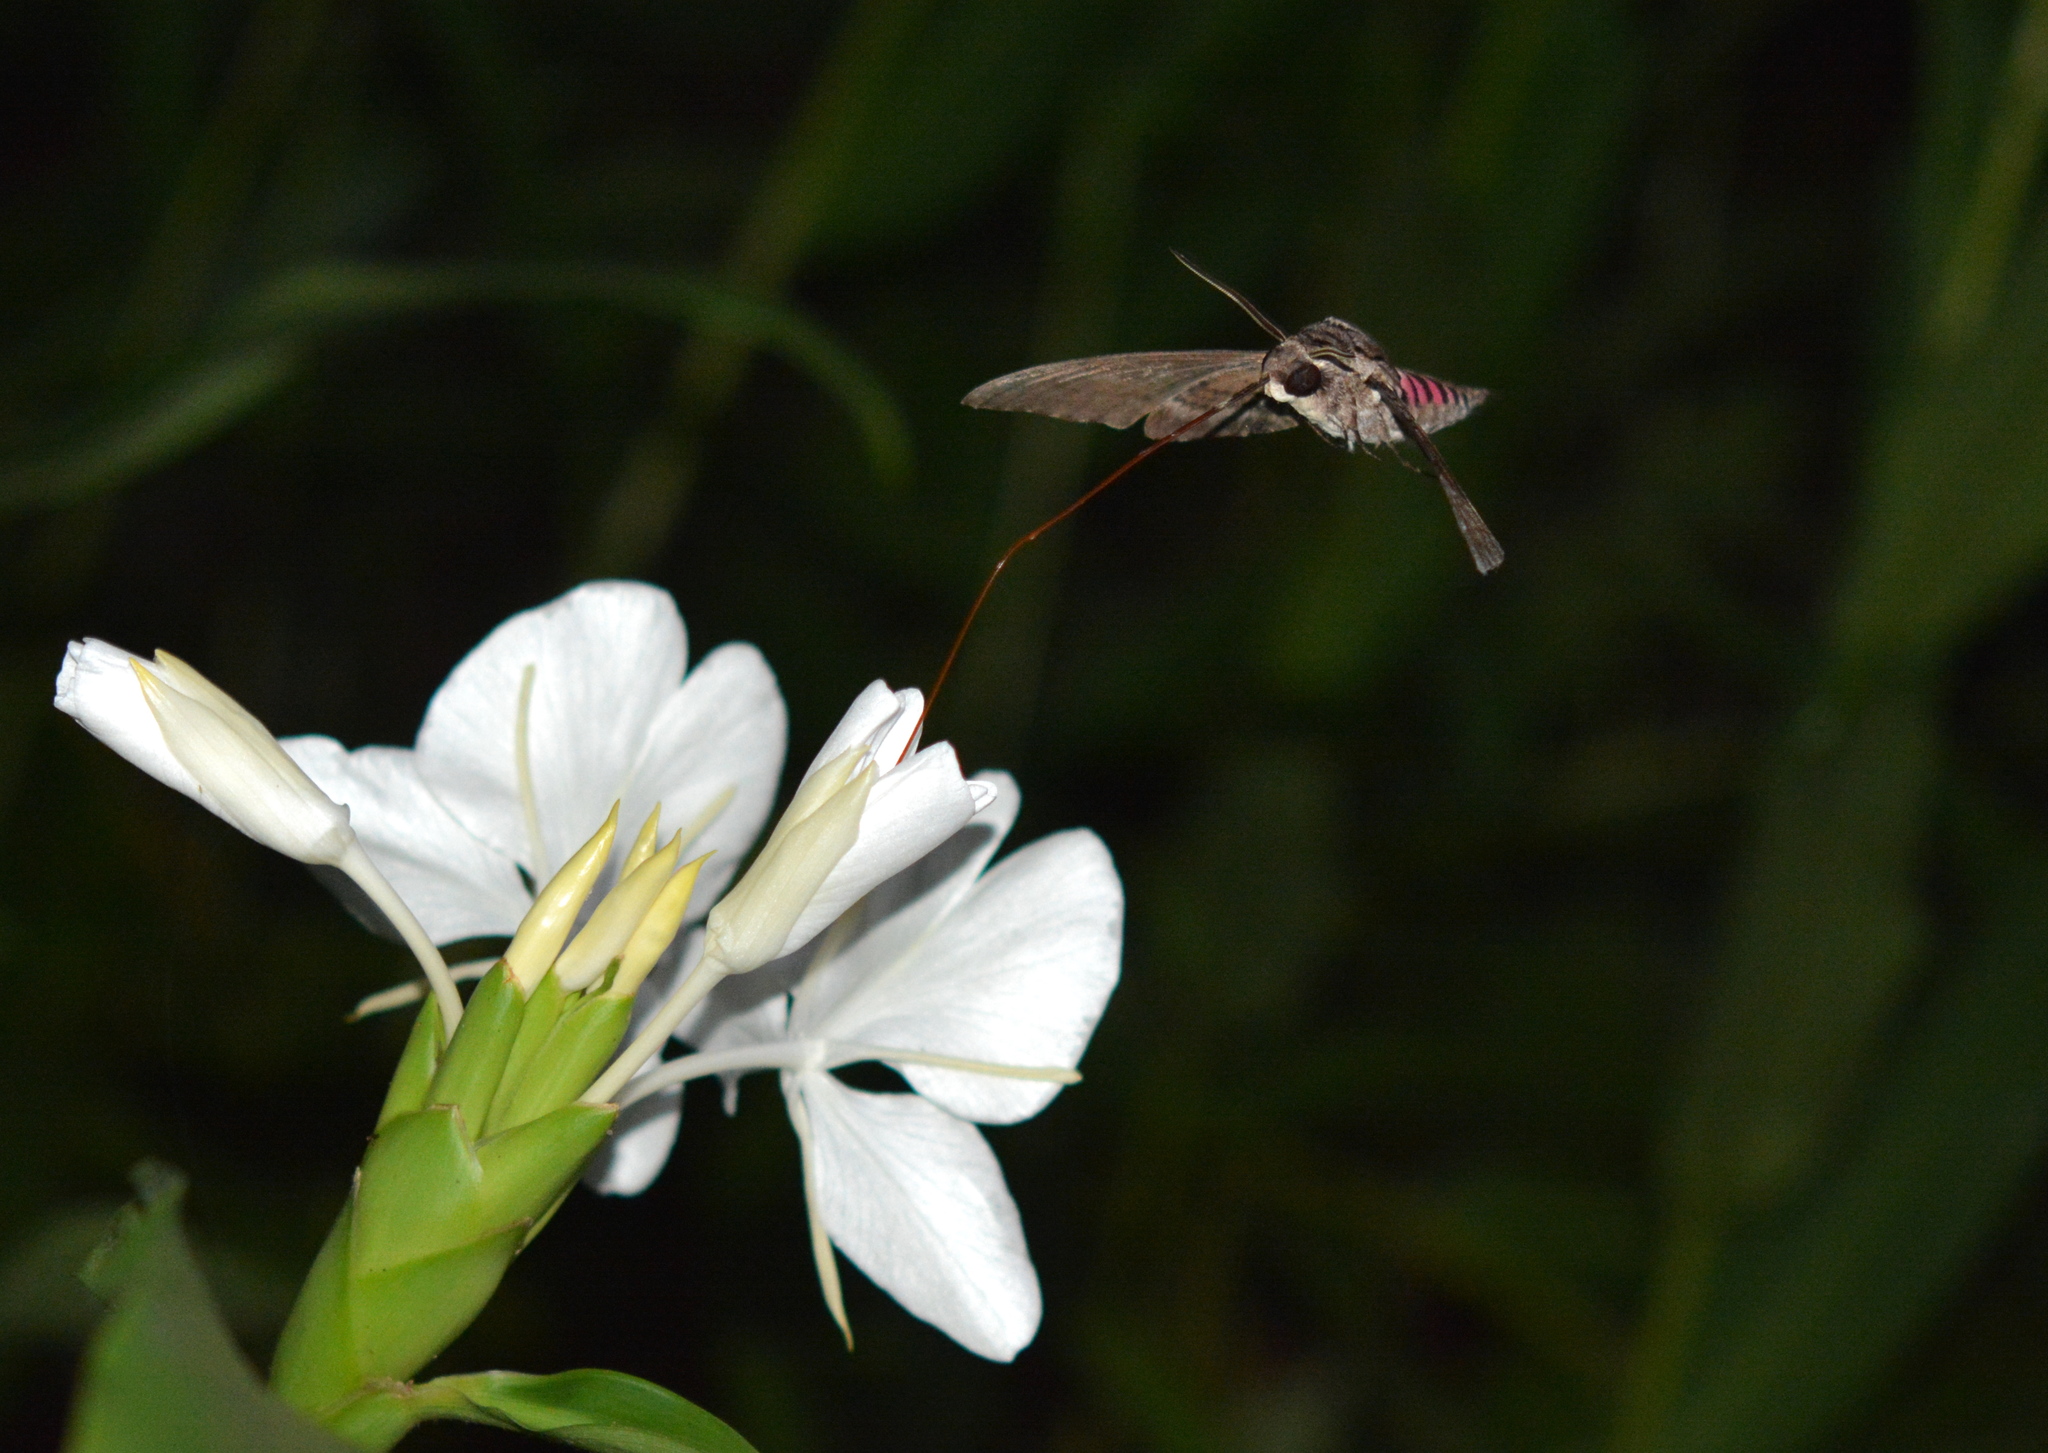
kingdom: Animalia
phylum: Arthropoda
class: Insecta
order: Lepidoptera
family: Sphingidae
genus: Agrius
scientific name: Agrius cingulata
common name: Pink-spotted hawkmoth
